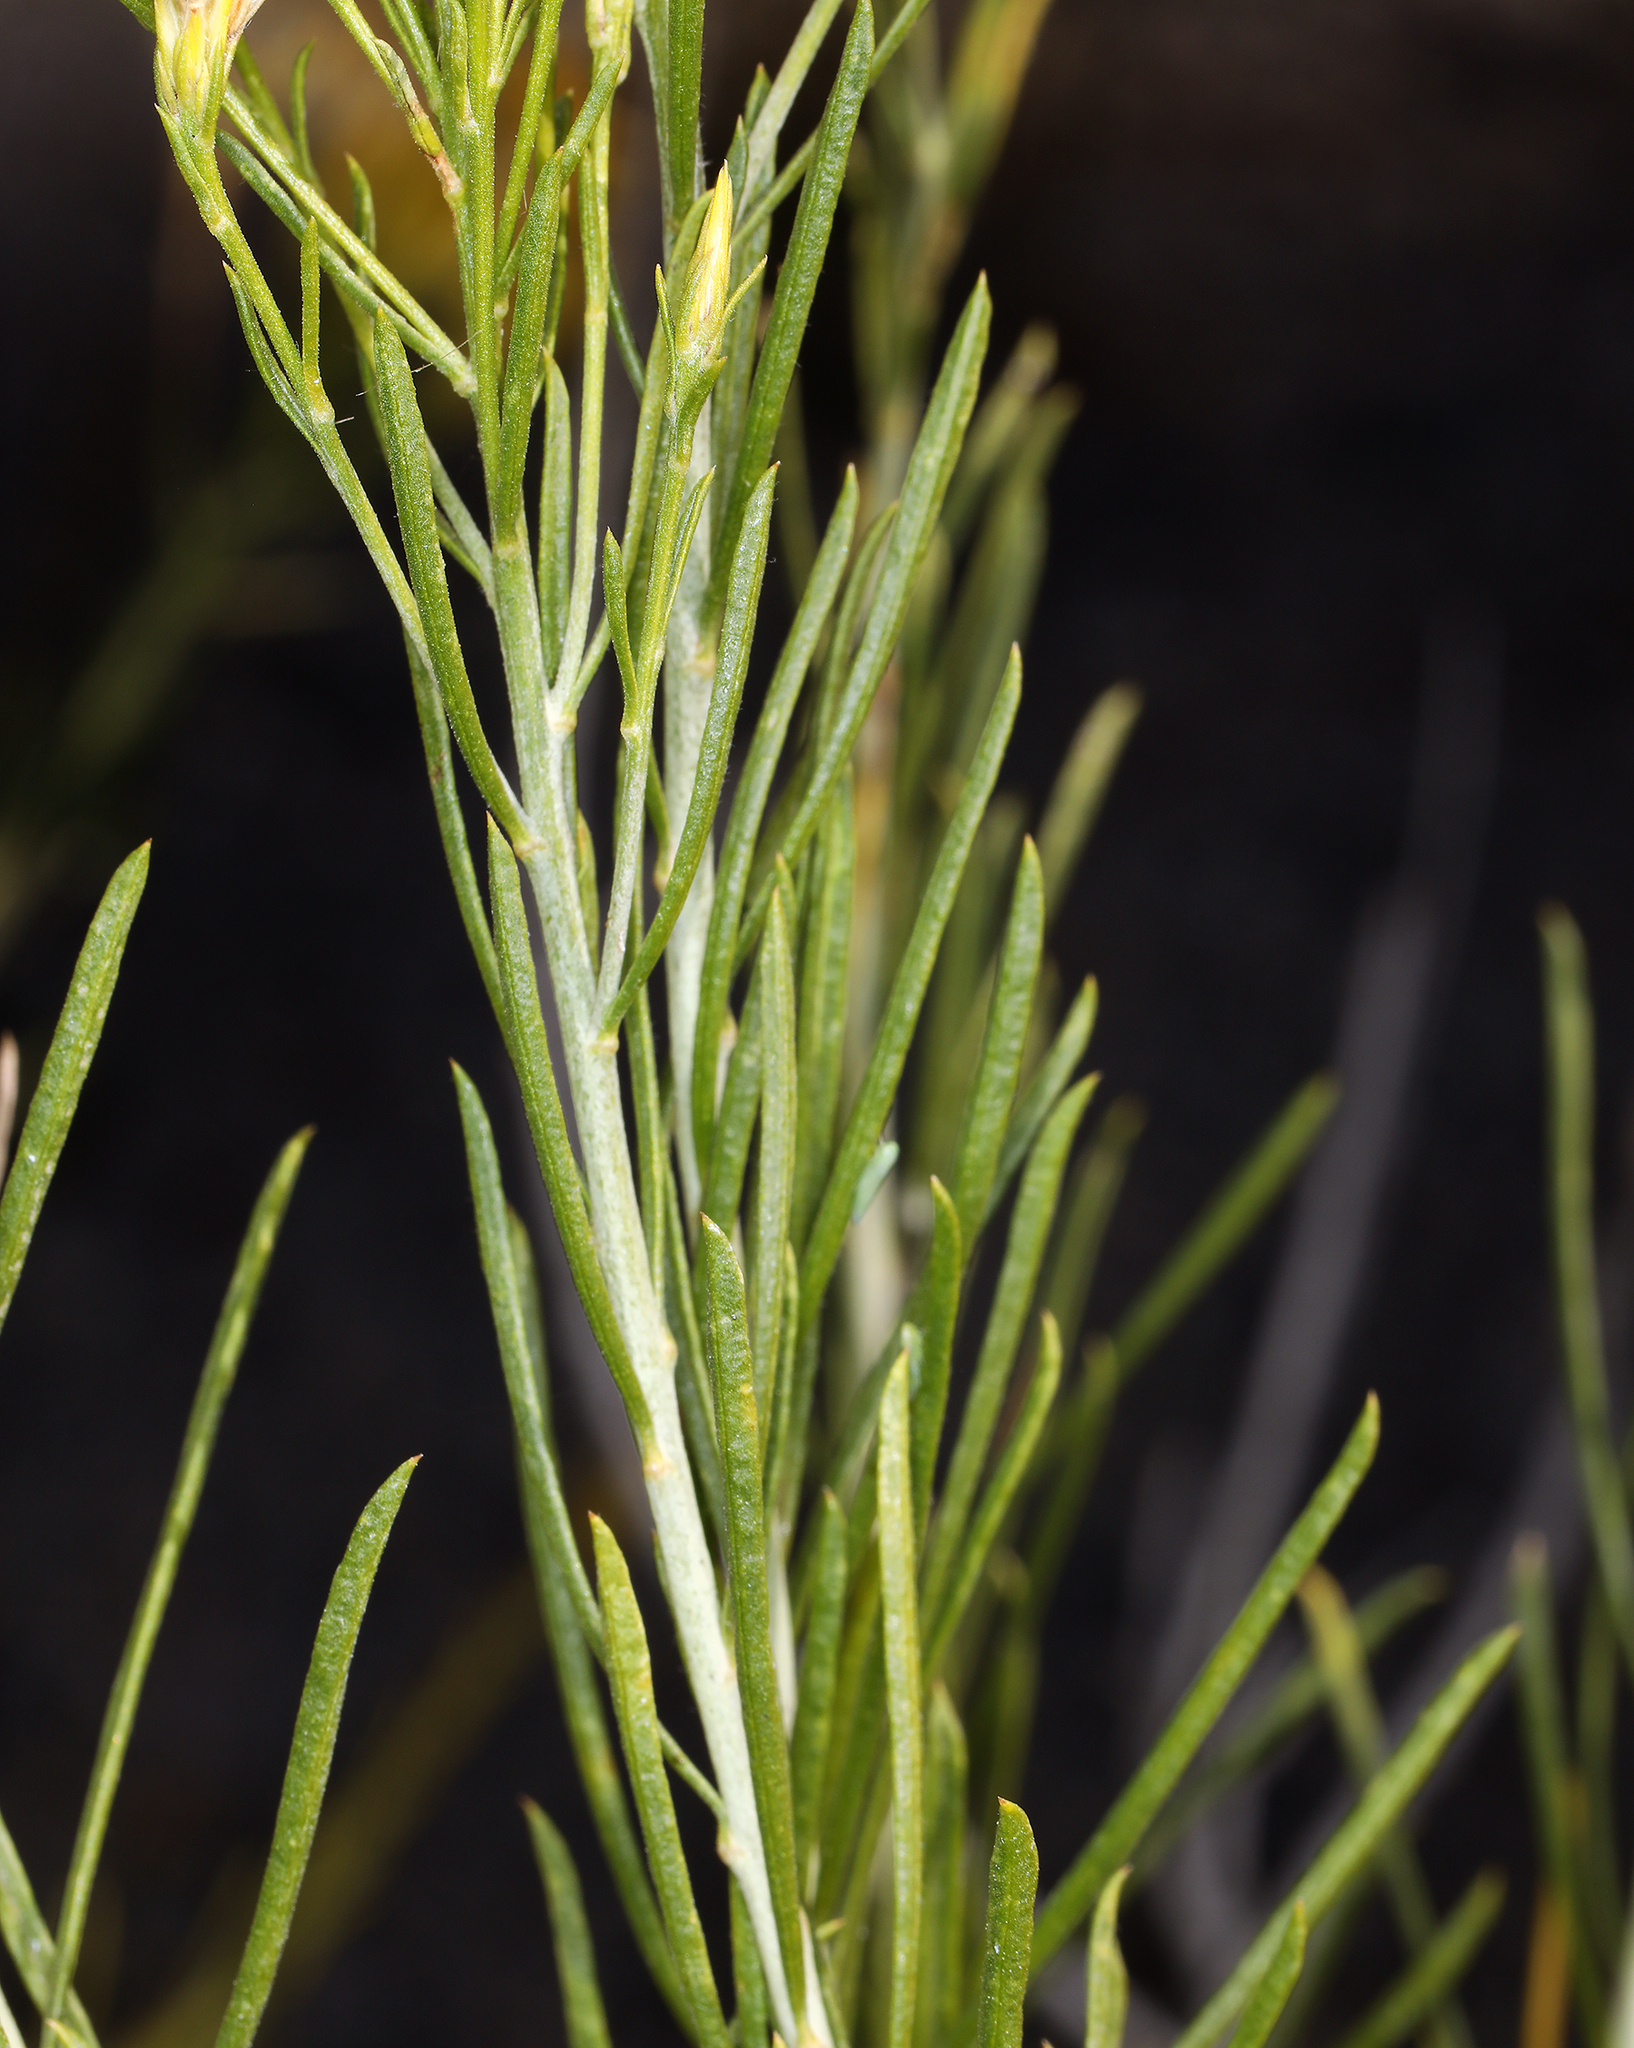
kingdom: Plantae
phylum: Tracheophyta
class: Magnoliopsida
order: Asterales
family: Asteraceae
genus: Ericameria
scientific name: Ericameria nauseosa
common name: Rubber rabbitbrush
